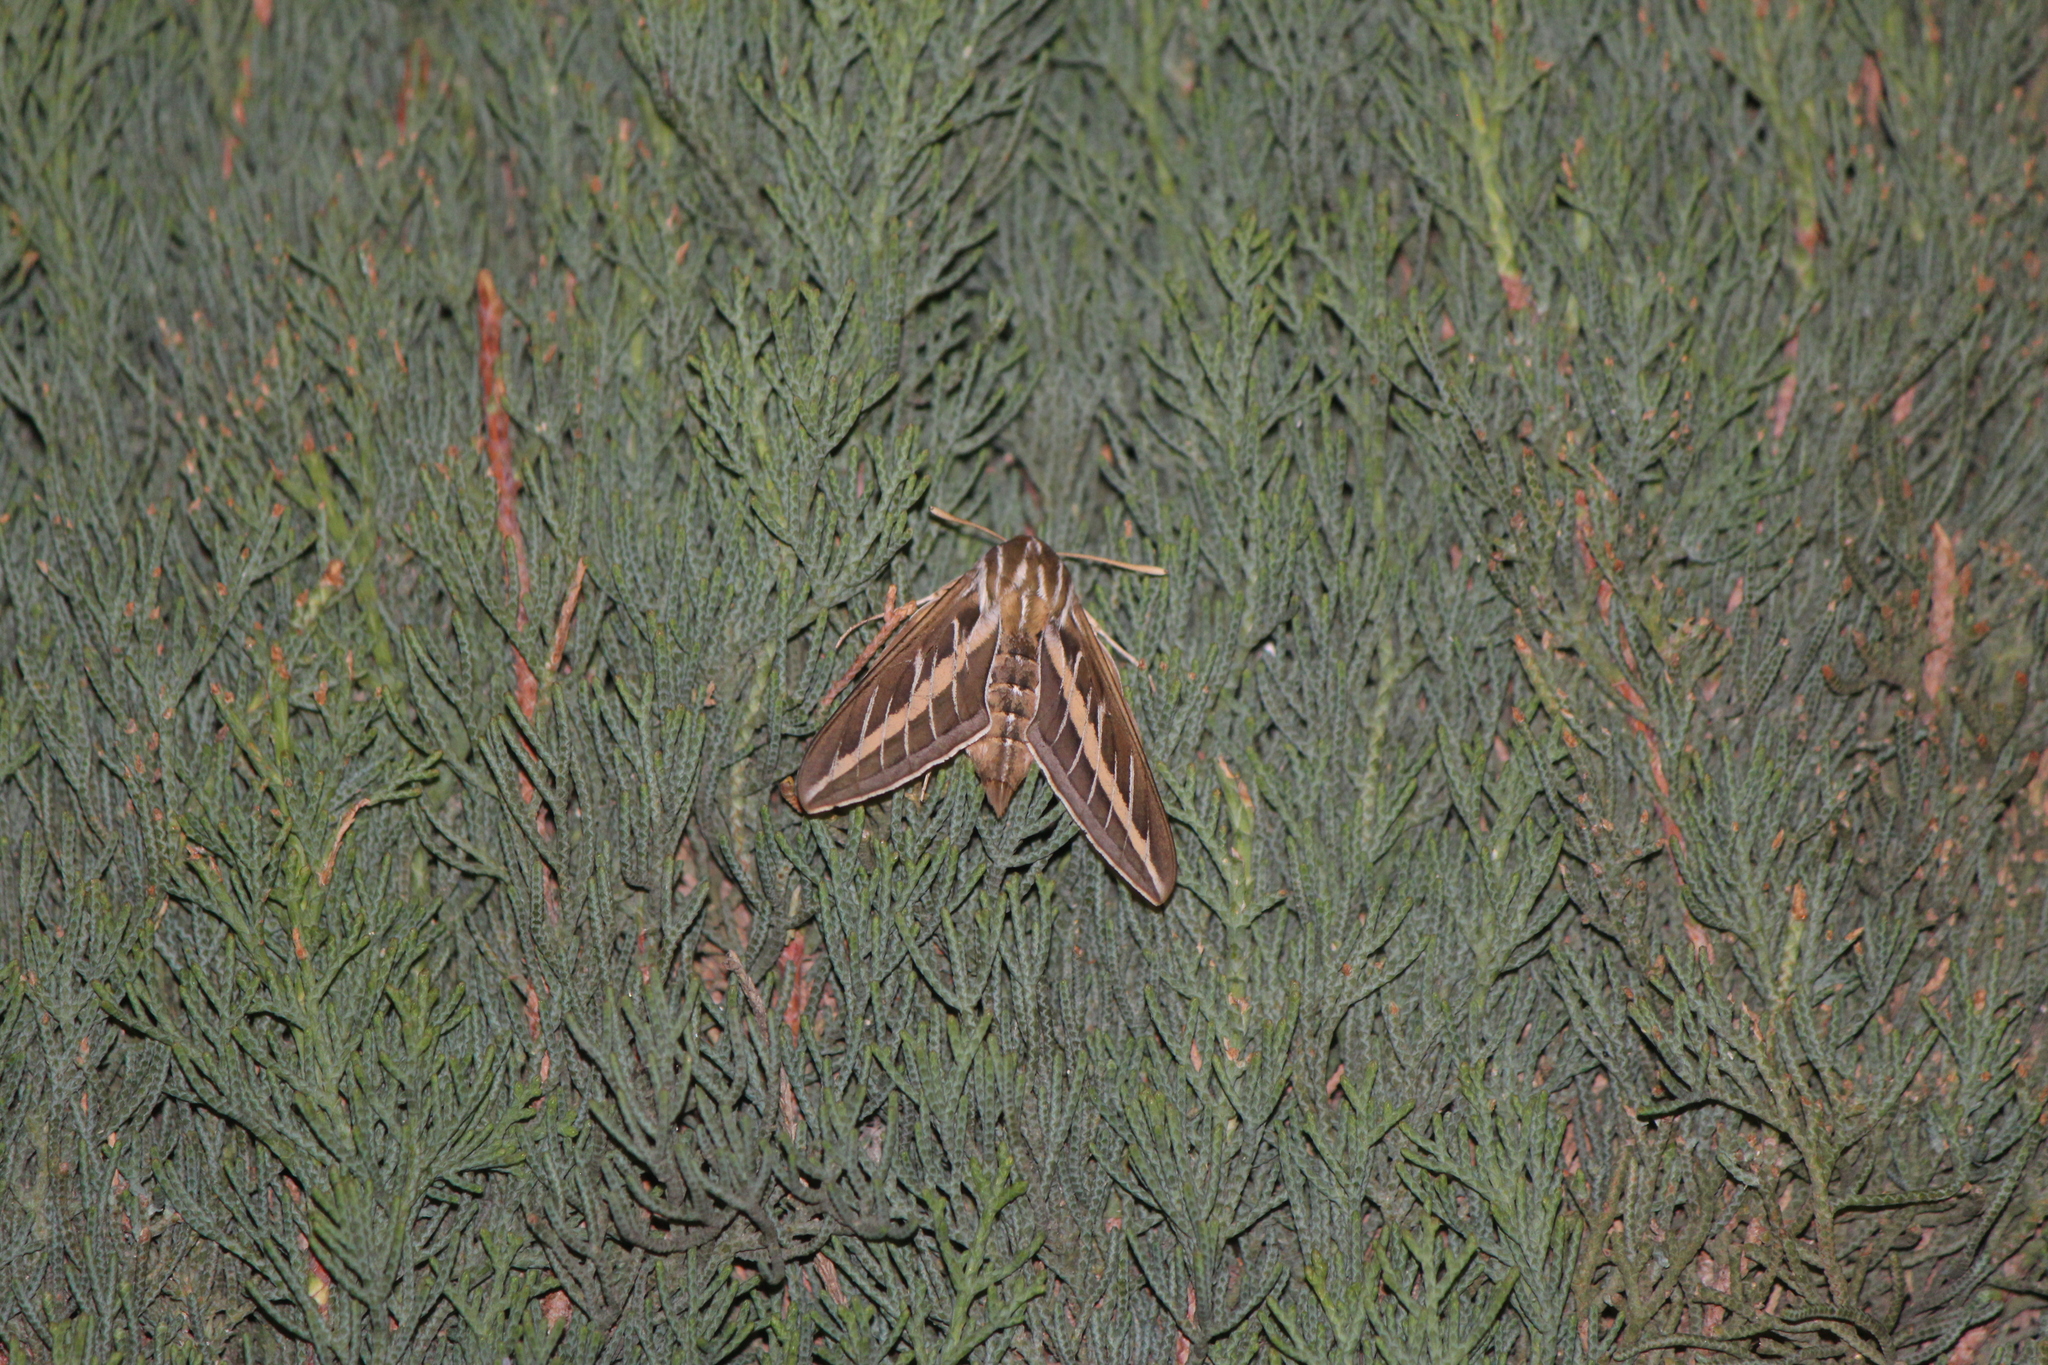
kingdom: Animalia
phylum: Arthropoda
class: Insecta
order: Lepidoptera
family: Sphingidae
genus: Hyles
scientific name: Hyles lineata
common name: White-lined sphinx
